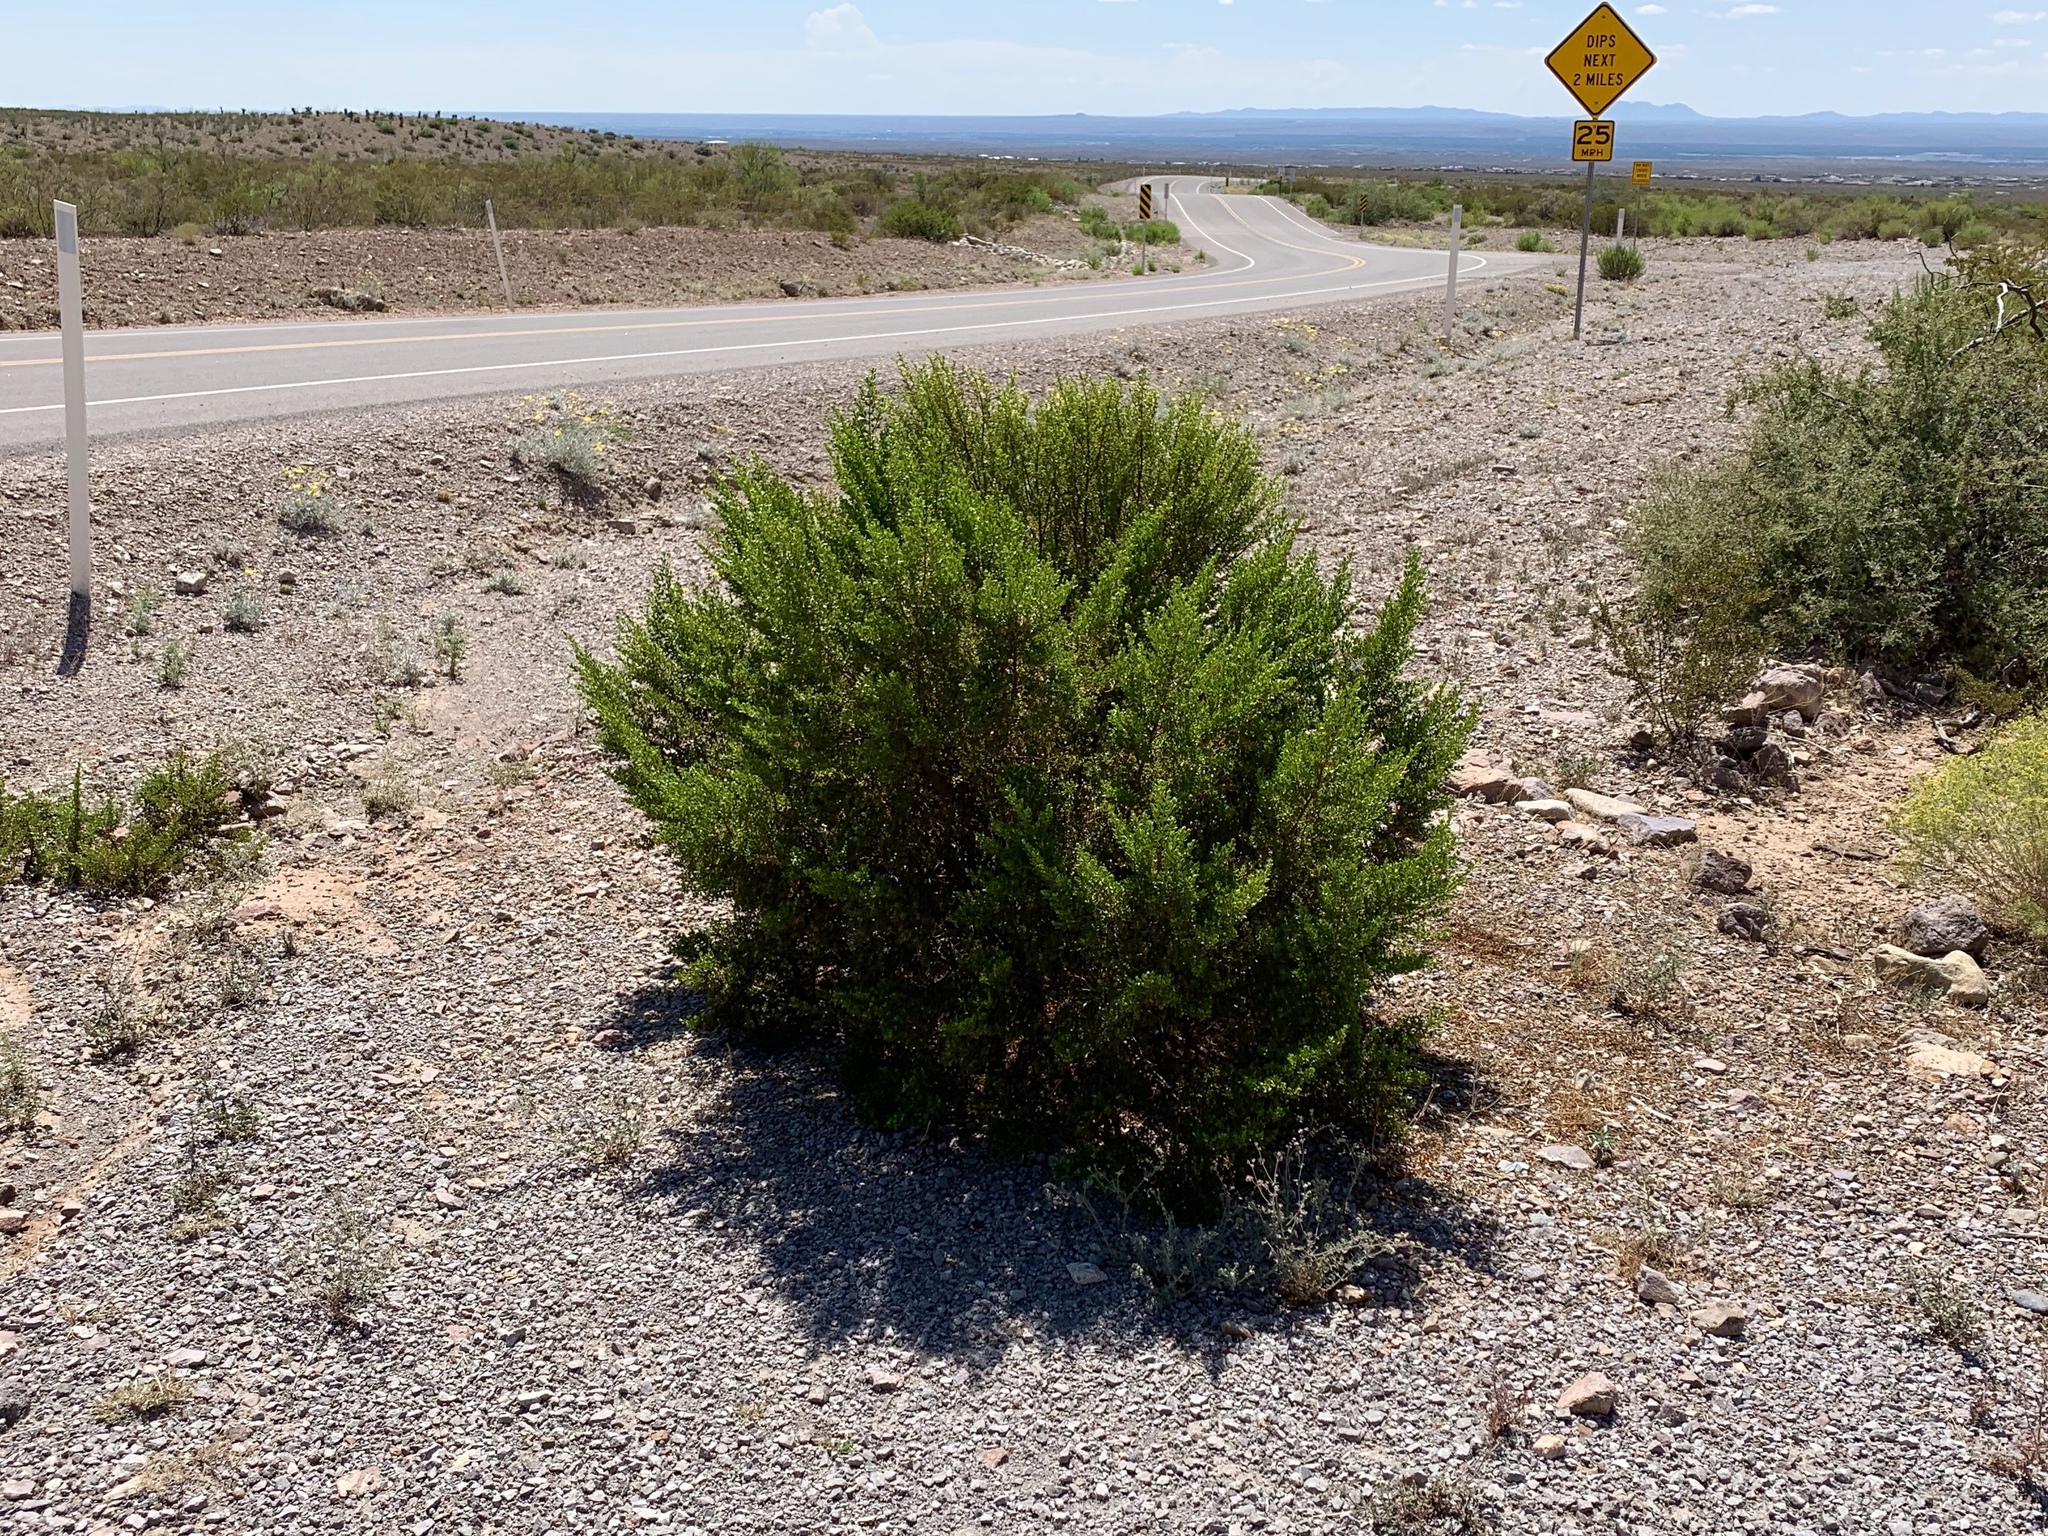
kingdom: Plantae
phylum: Tracheophyta
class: Magnoliopsida
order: Zygophyllales
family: Zygophyllaceae
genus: Larrea
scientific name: Larrea tridentata
